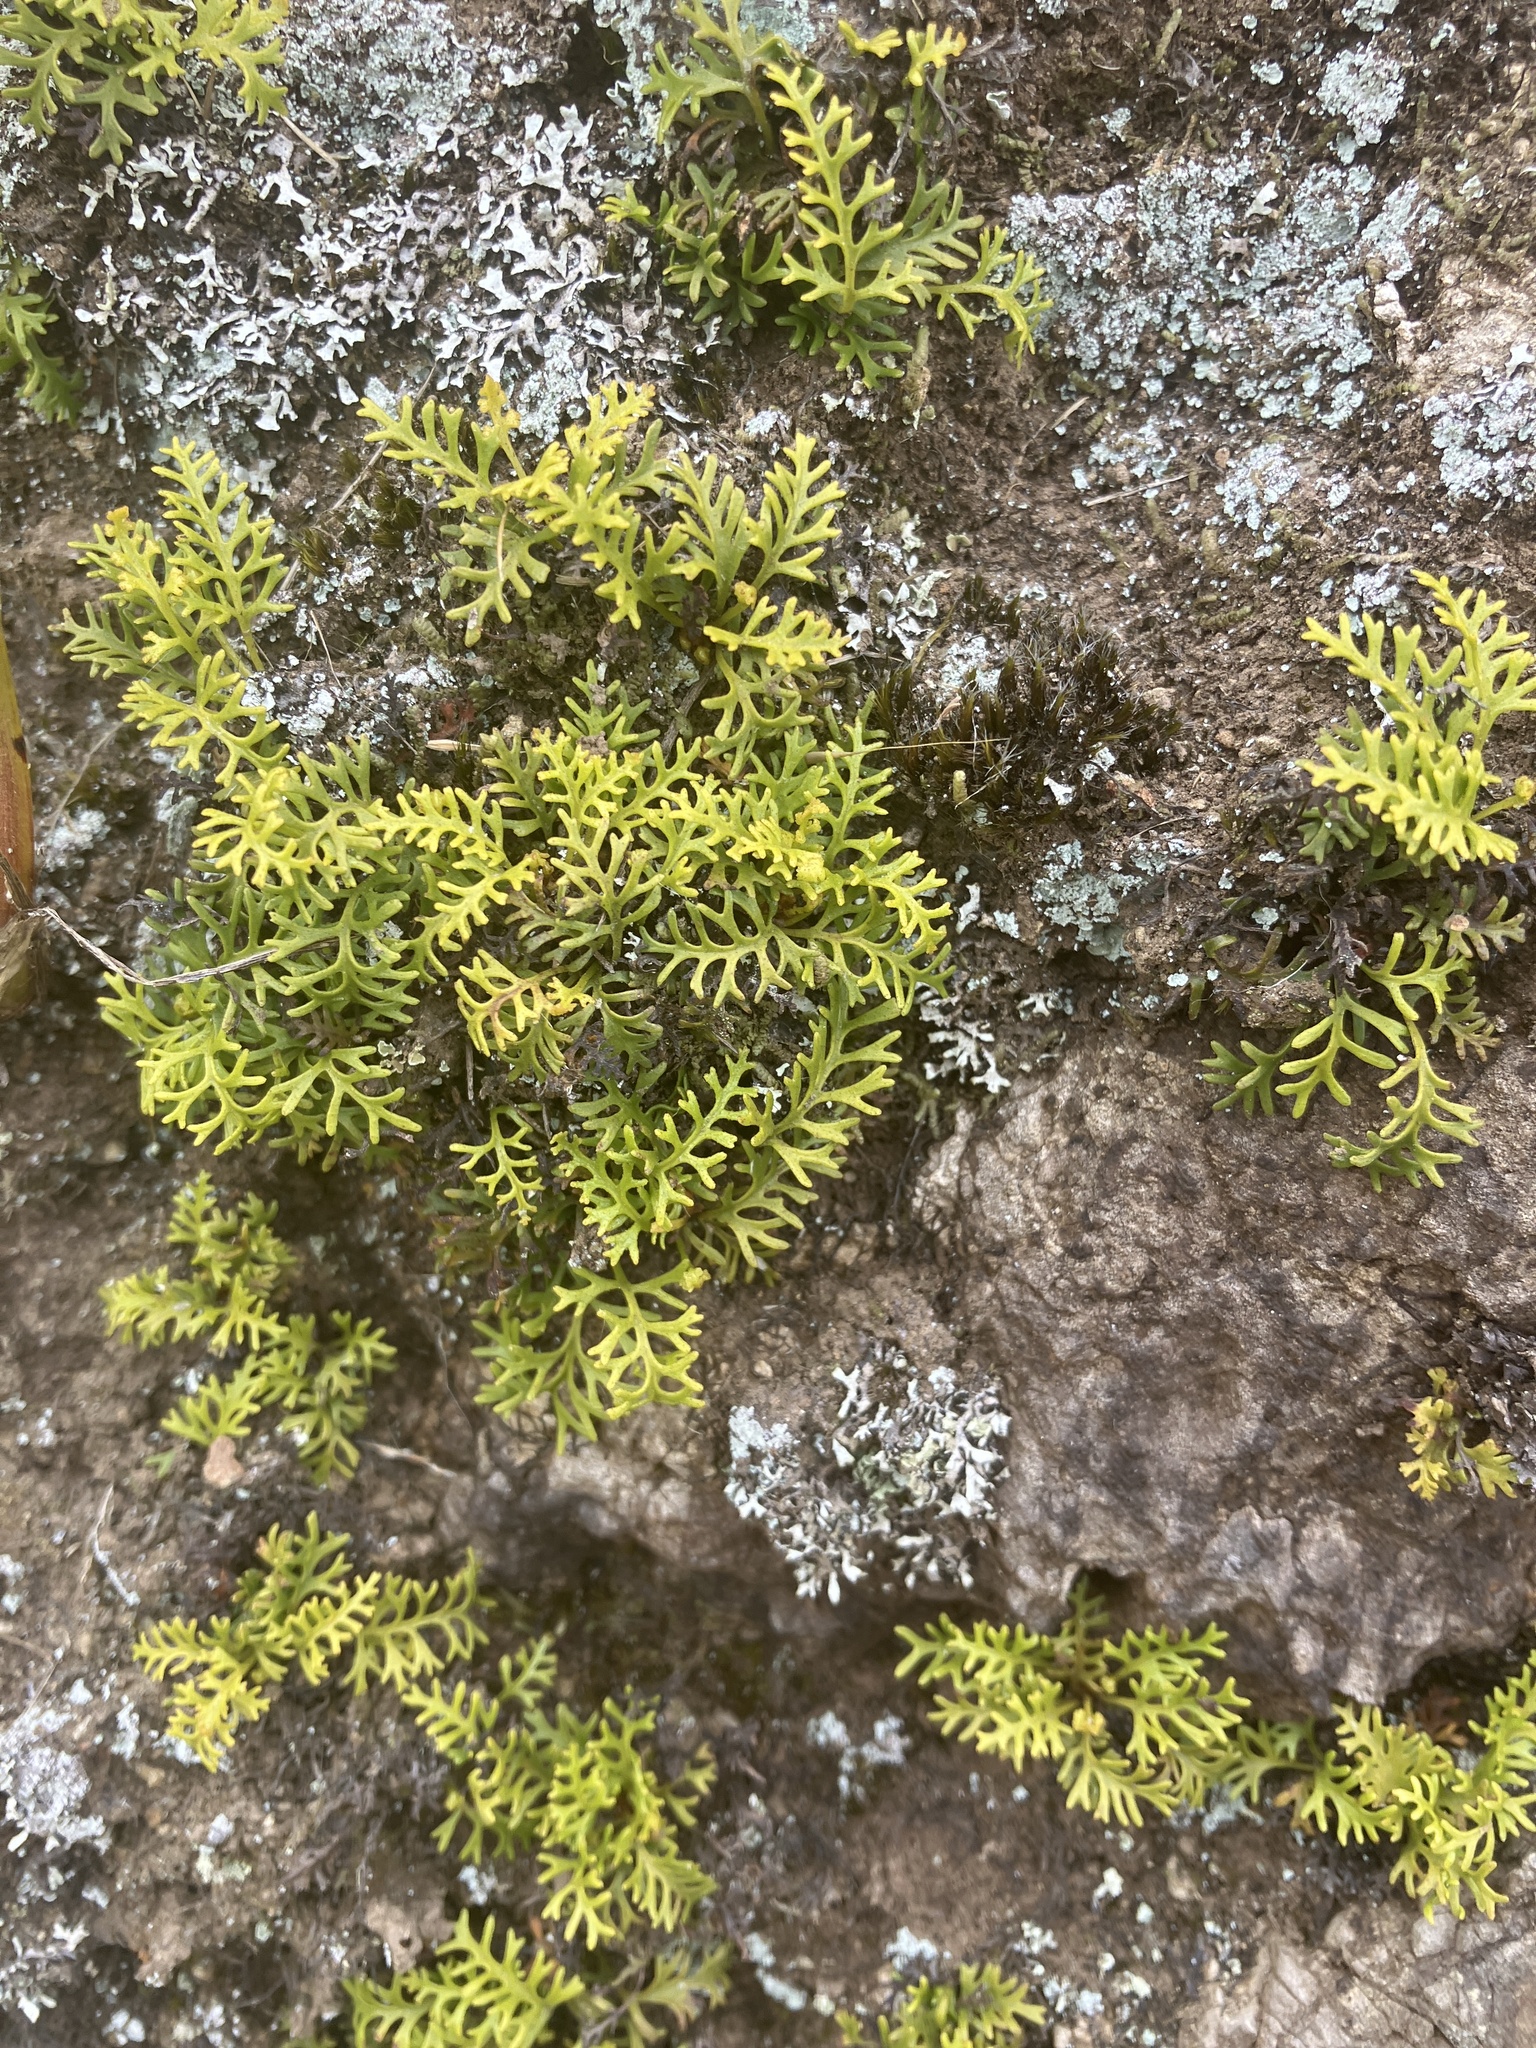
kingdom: Plantae
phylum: Tracheophyta
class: Polypodiopsida
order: Polypodiales
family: Dryopteridaceae
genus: Elaphoglossum
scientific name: Elaphoglossum furcatum
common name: Mossy fern
